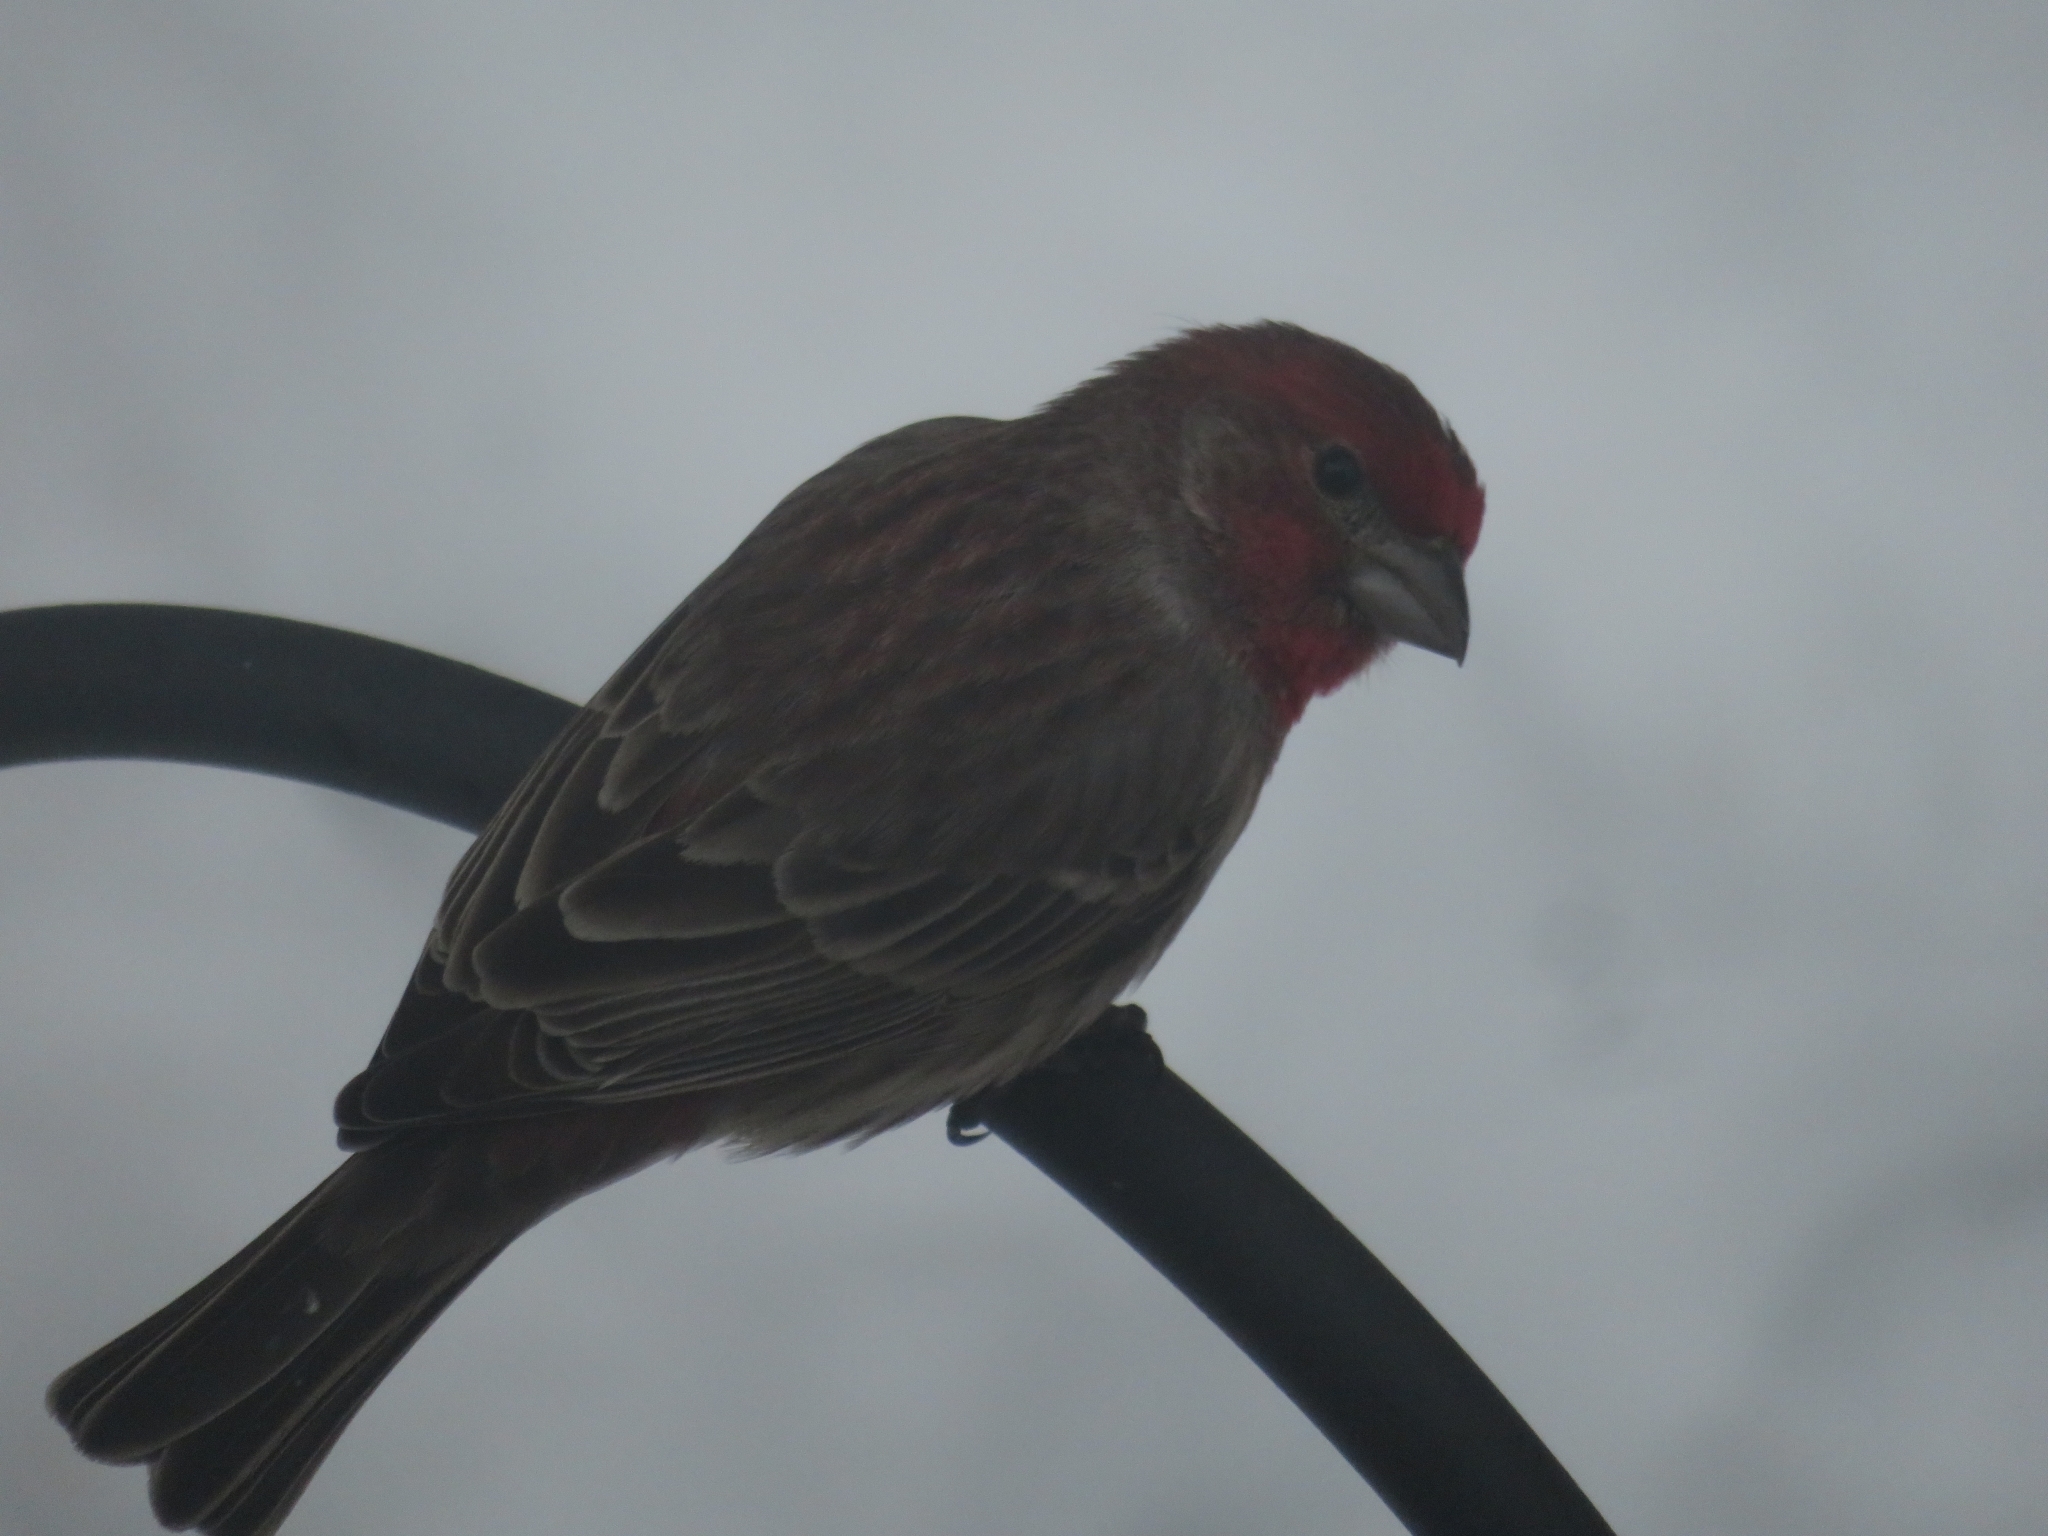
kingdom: Animalia
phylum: Chordata
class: Aves
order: Passeriformes
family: Fringillidae
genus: Haemorhous
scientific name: Haemorhous mexicanus
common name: House finch
